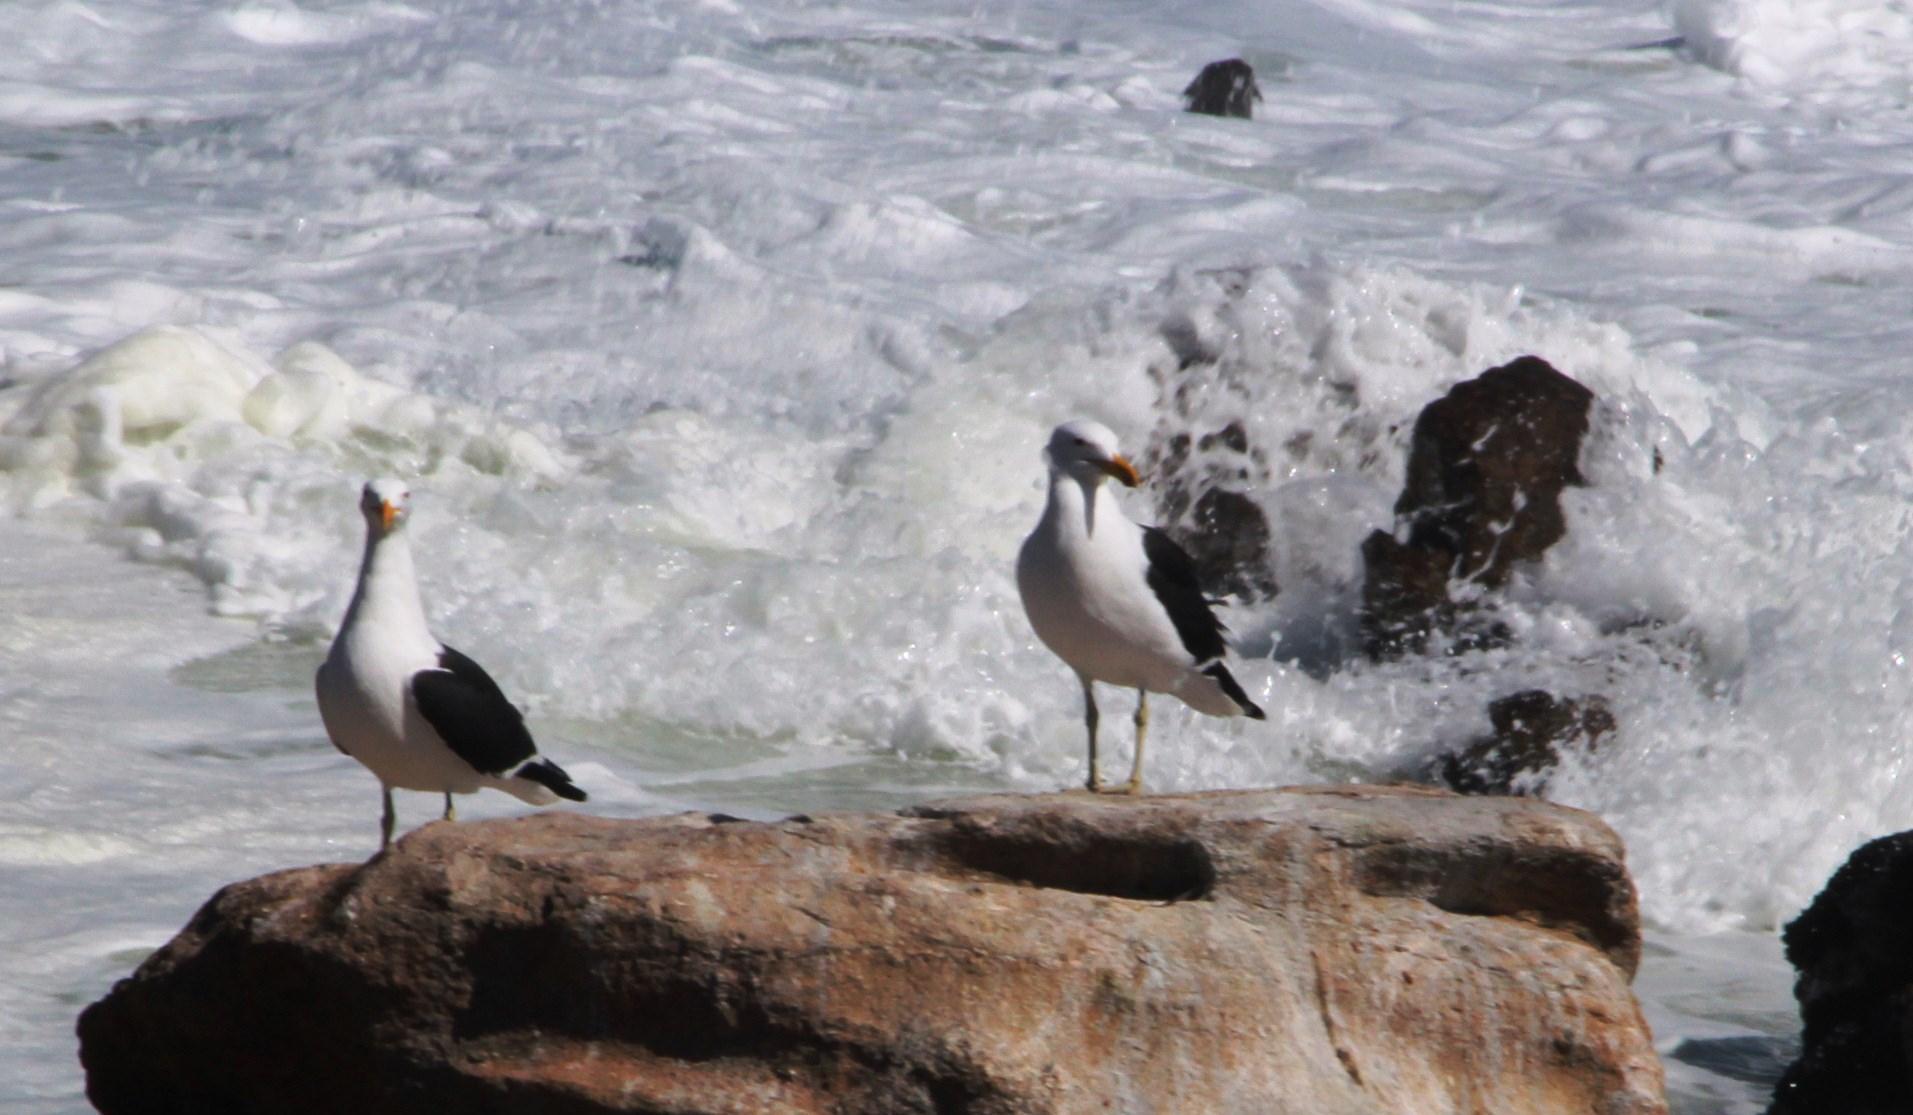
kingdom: Animalia
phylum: Chordata
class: Aves
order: Charadriiformes
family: Laridae
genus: Larus
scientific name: Larus dominicanus
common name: Kelp gull
